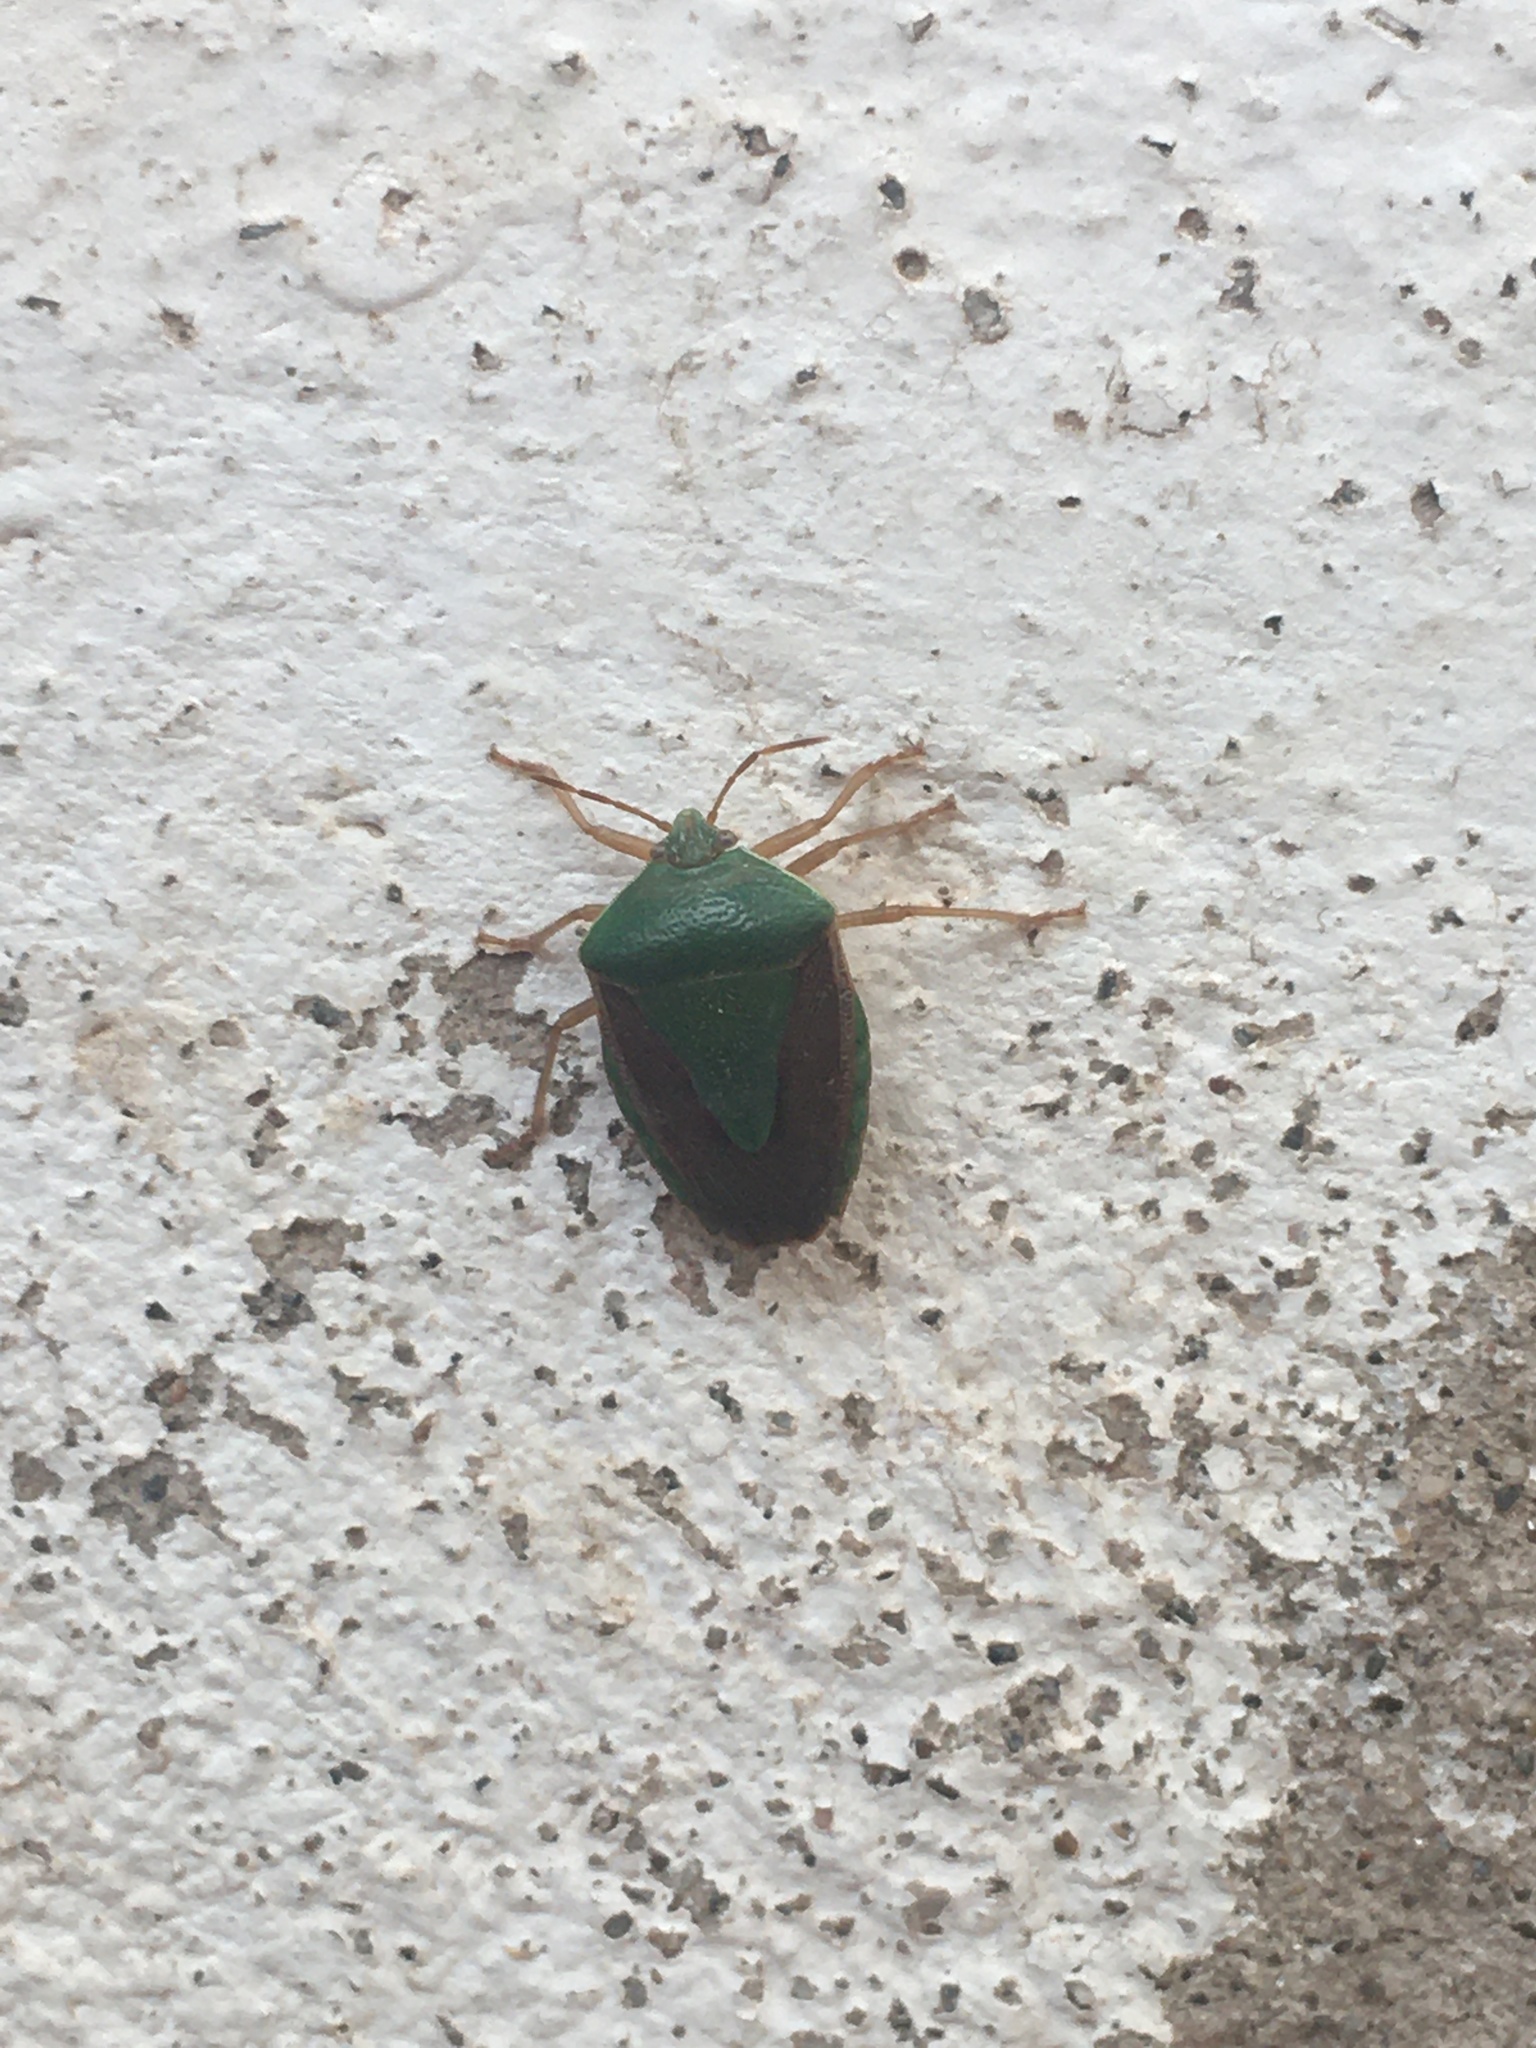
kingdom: Animalia
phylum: Arthropoda
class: Insecta
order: Hemiptera
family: Pentatomidae
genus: Edessa
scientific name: Edessa meditabunda
